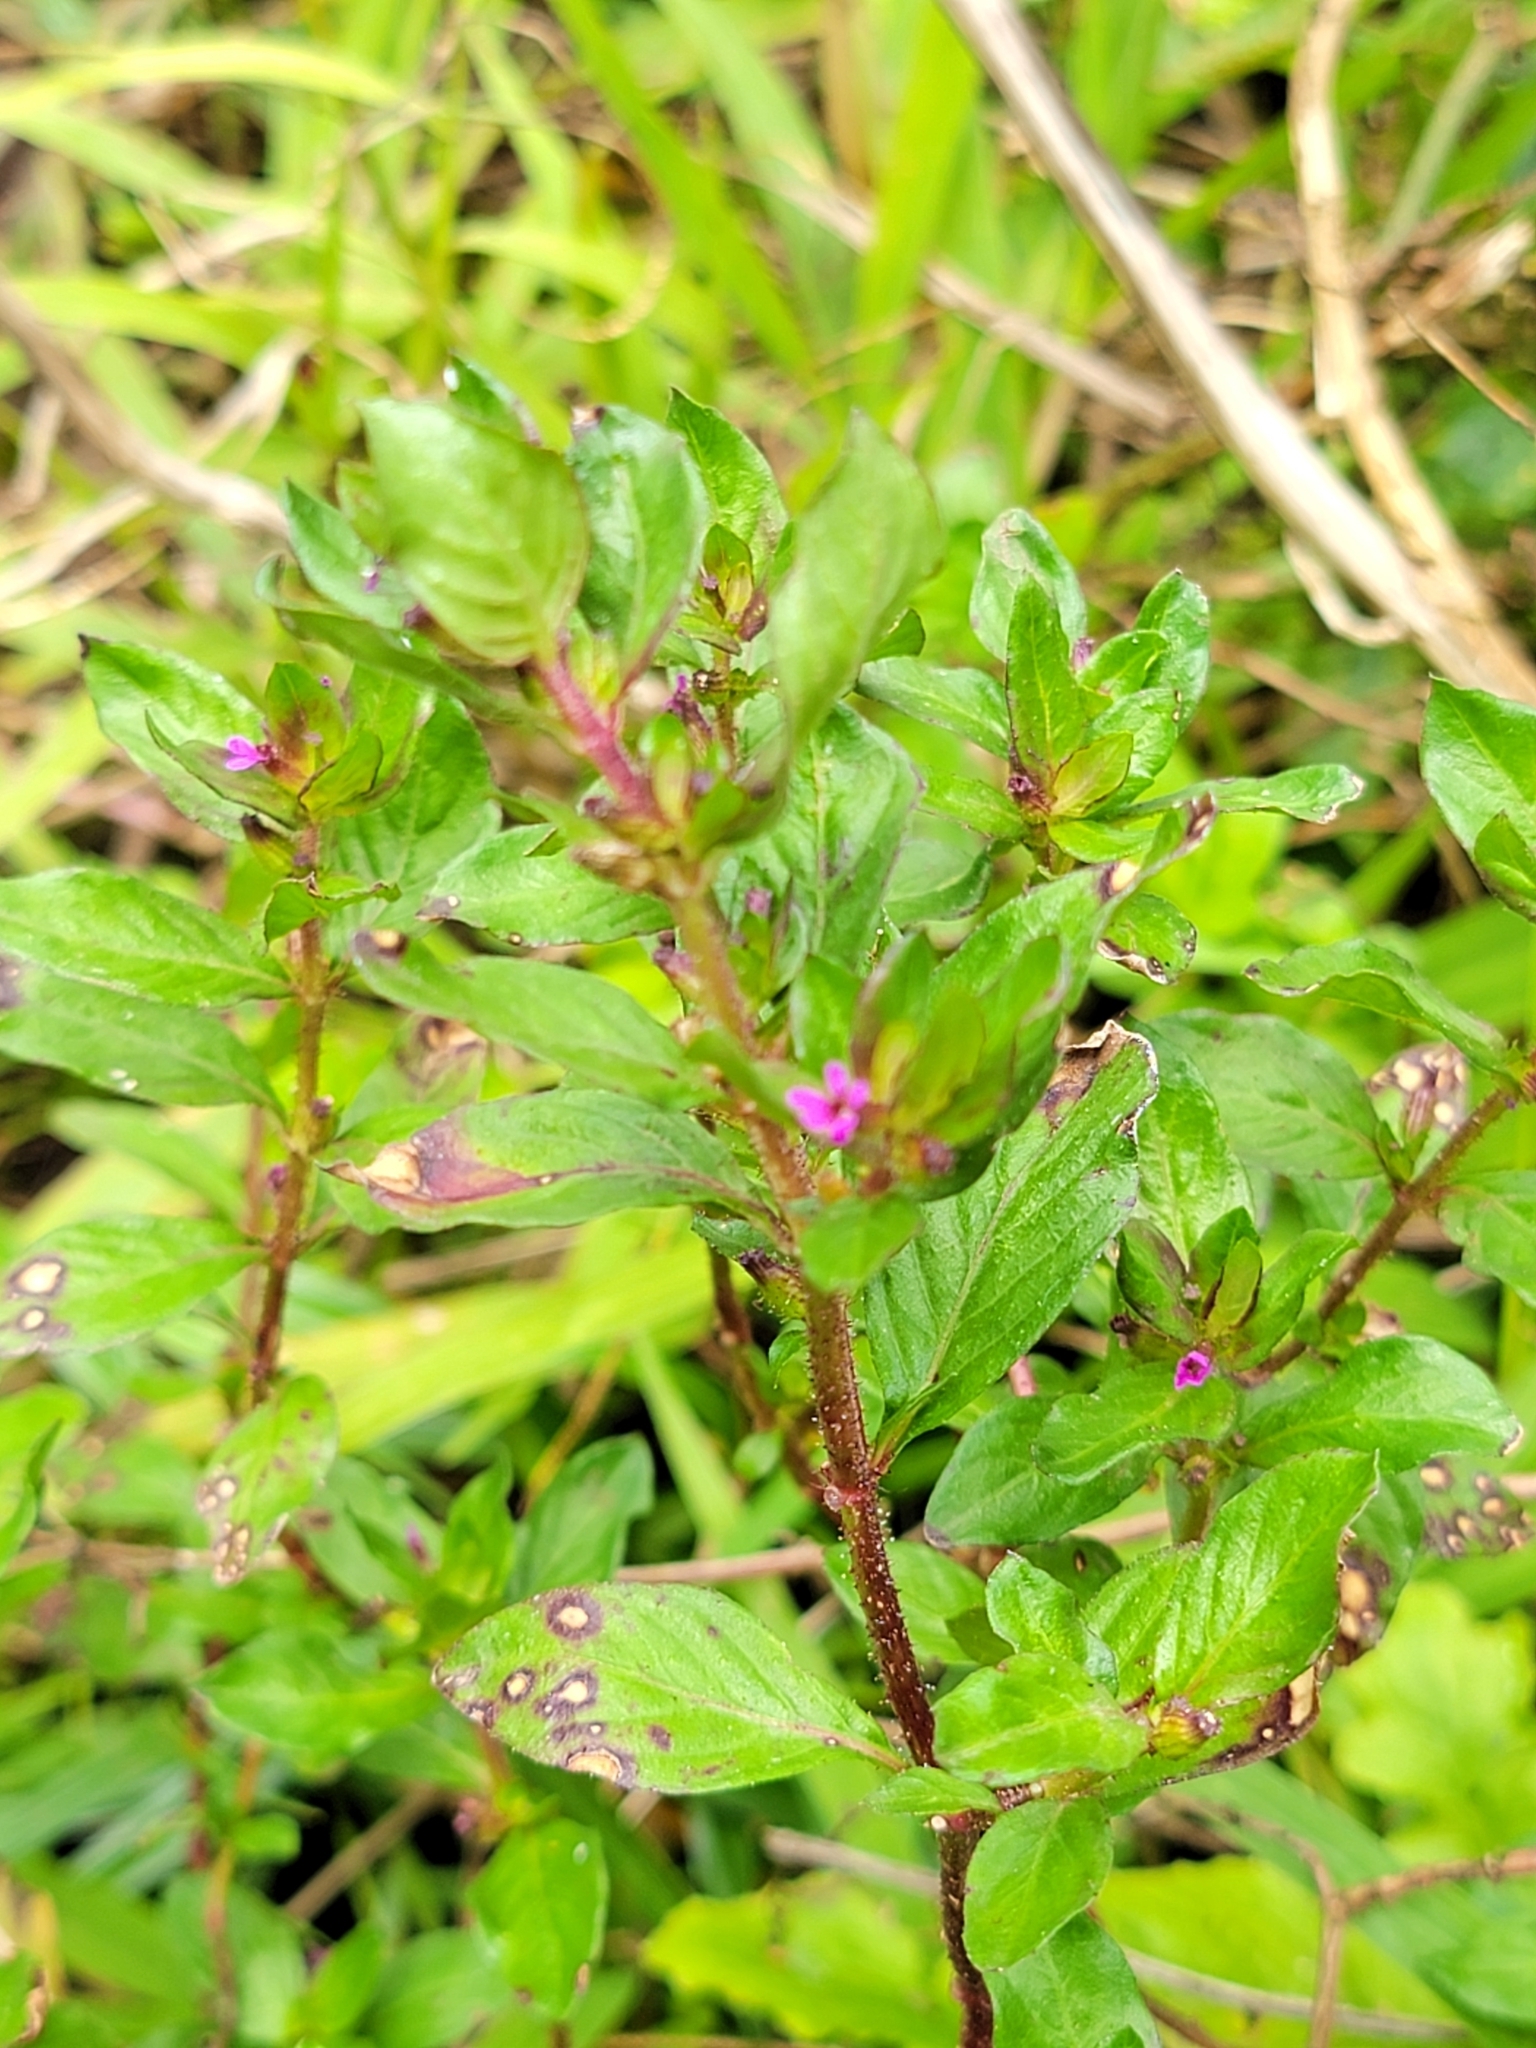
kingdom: Plantae
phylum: Tracheophyta
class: Magnoliopsida
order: Myrtales
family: Lythraceae
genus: Cuphea
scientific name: Cuphea carthagenensis
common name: Colombian waxweed
